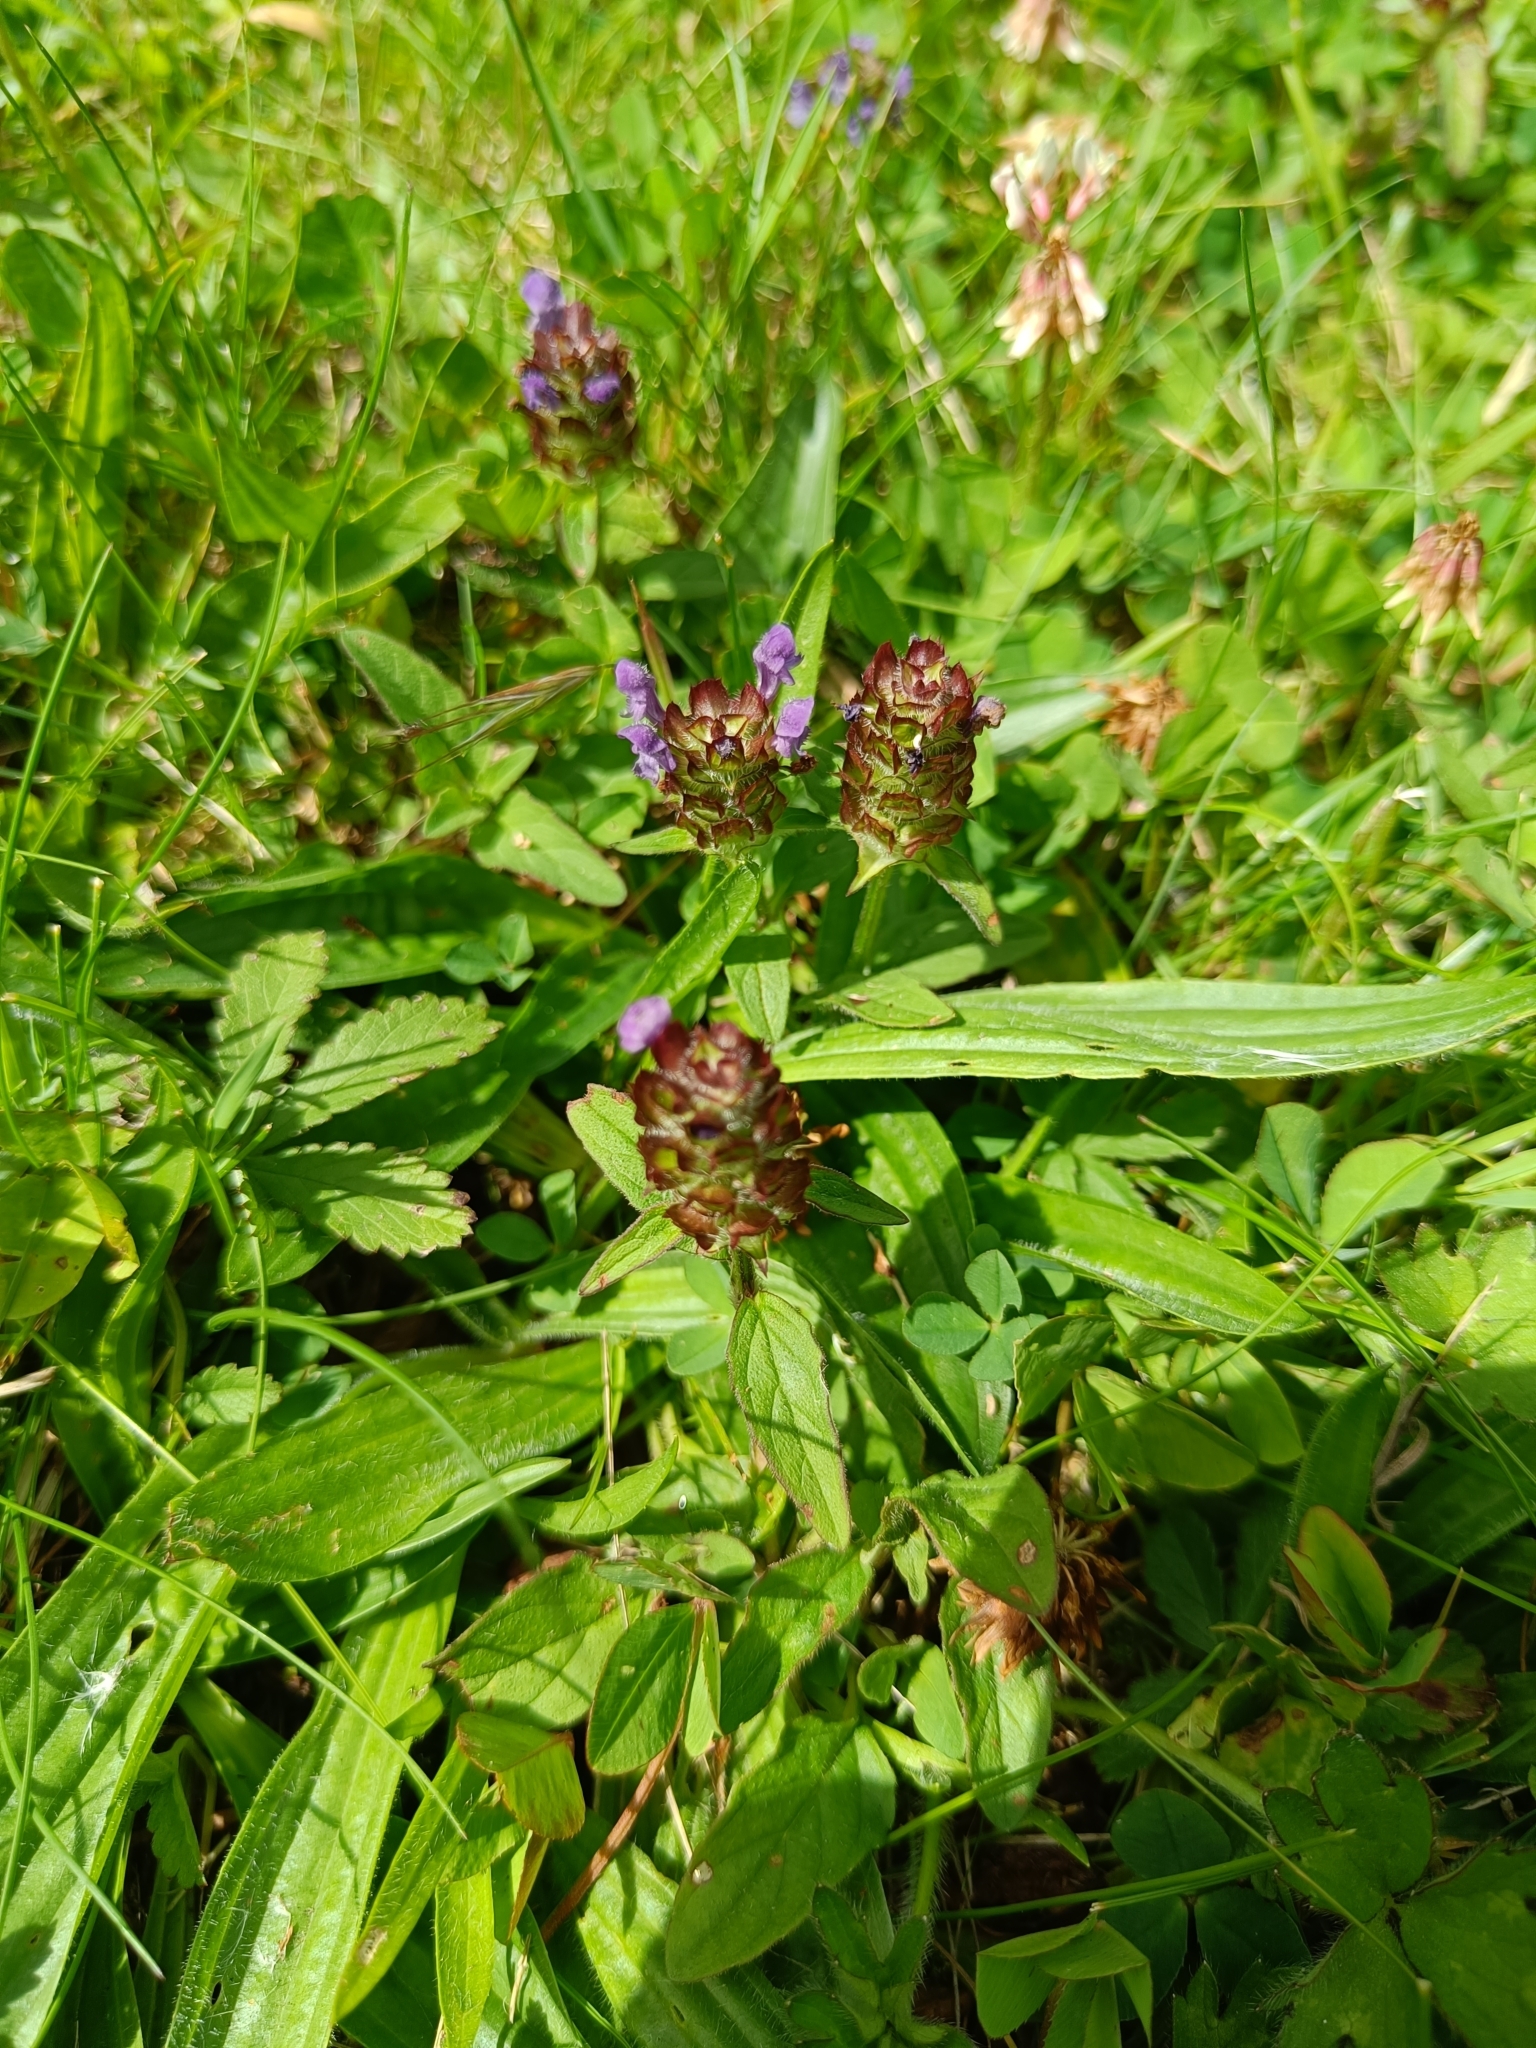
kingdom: Plantae
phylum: Tracheophyta
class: Magnoliopsida
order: Lamiales
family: Lamiaceae
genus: Prunella
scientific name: Prunella vulgaris
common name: Heal-all
